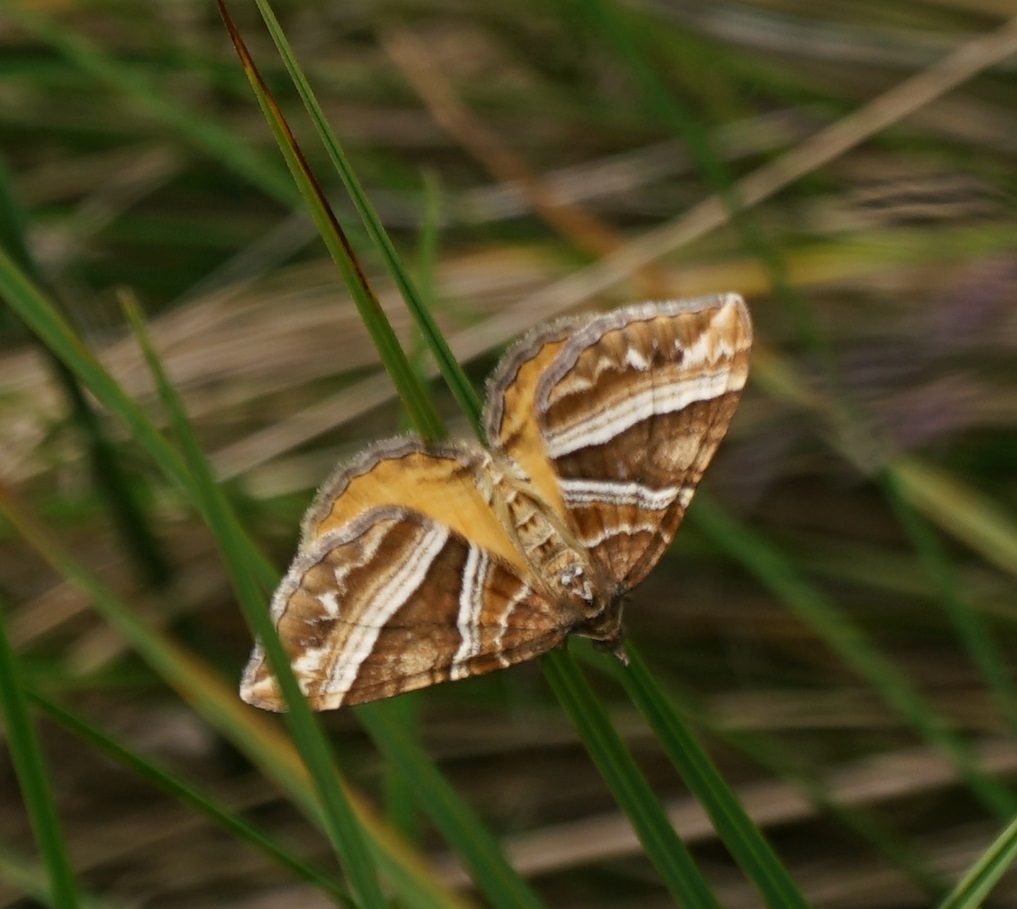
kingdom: Animalia
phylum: Arthropoda
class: Insecta
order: Lepidoptera
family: Geometridae
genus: Chrysolarentia
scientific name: Chrysolarentia conifasciata
